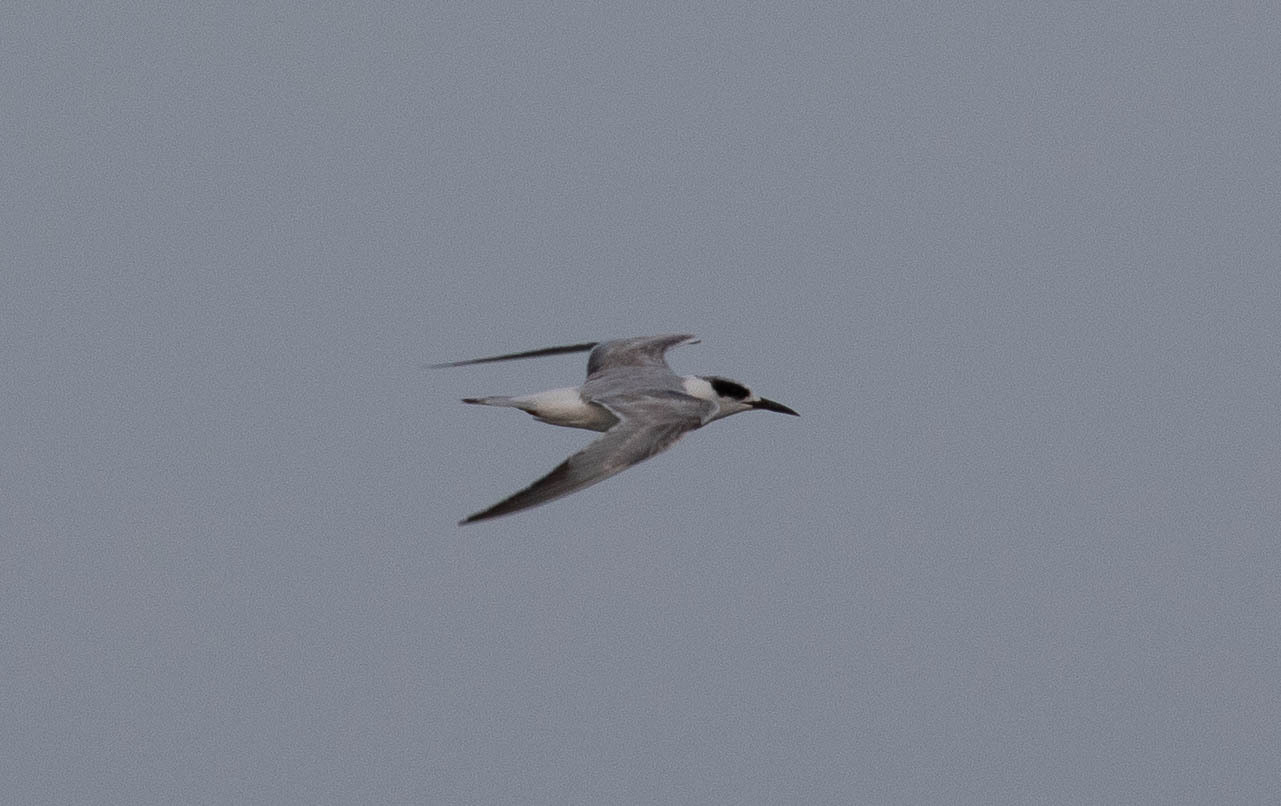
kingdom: Animalia
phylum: Chordata
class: Aves
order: Charadriiformes
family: Laridae
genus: Sterna
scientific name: Sterna forsteri
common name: Forster's tern
